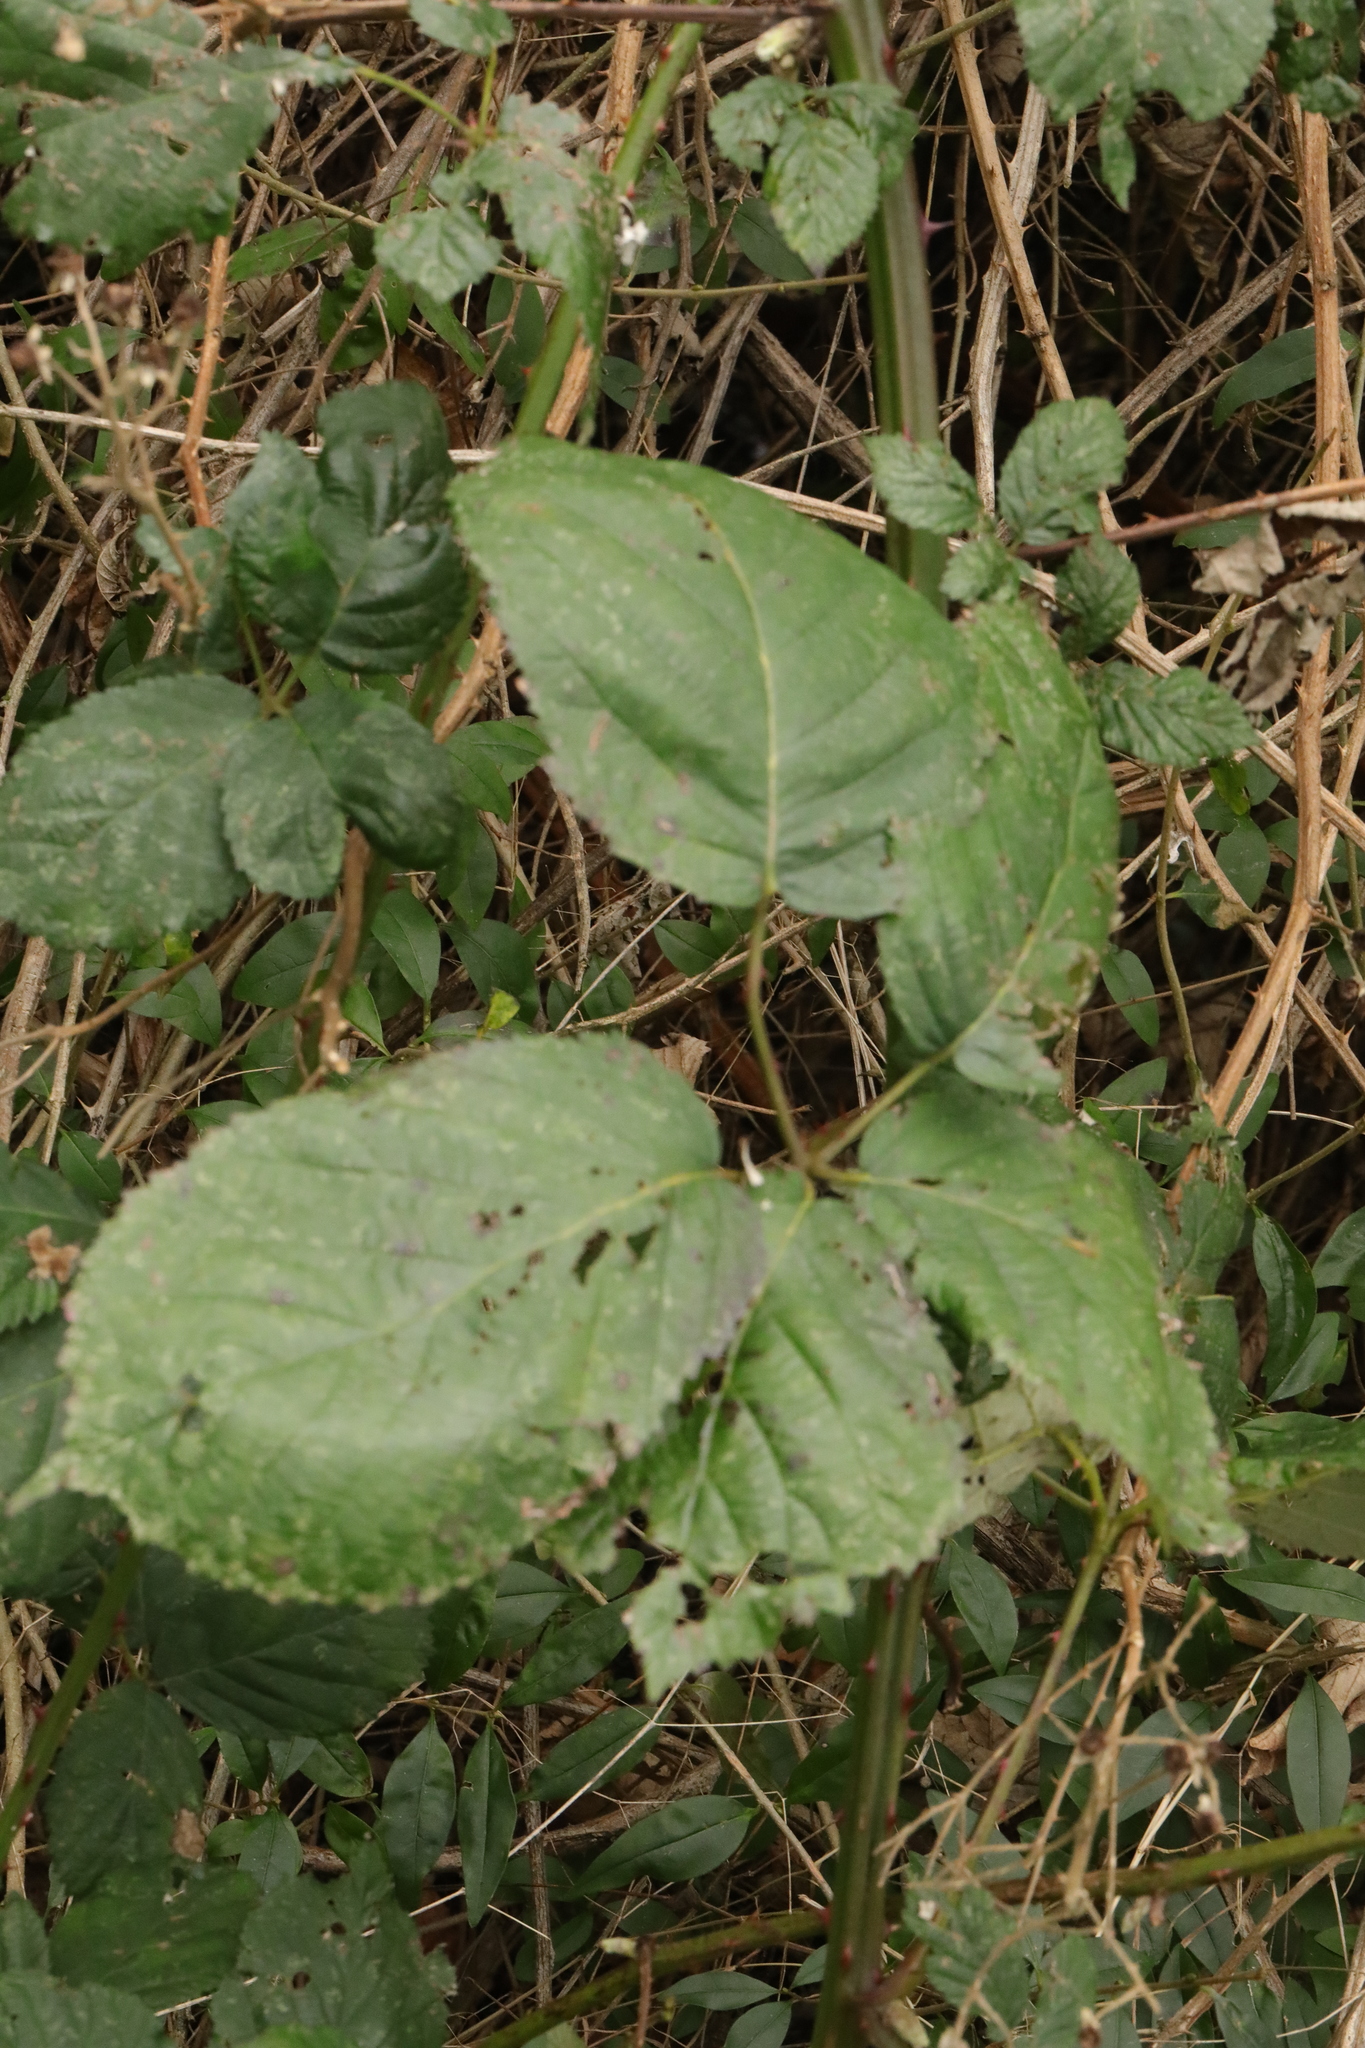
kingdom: Plantae
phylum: Tracheophyta
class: Magnoliopsida
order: Rosales
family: Rosaceae
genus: Rubus
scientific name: Rubus armeniacus
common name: Himalayan blackberry
